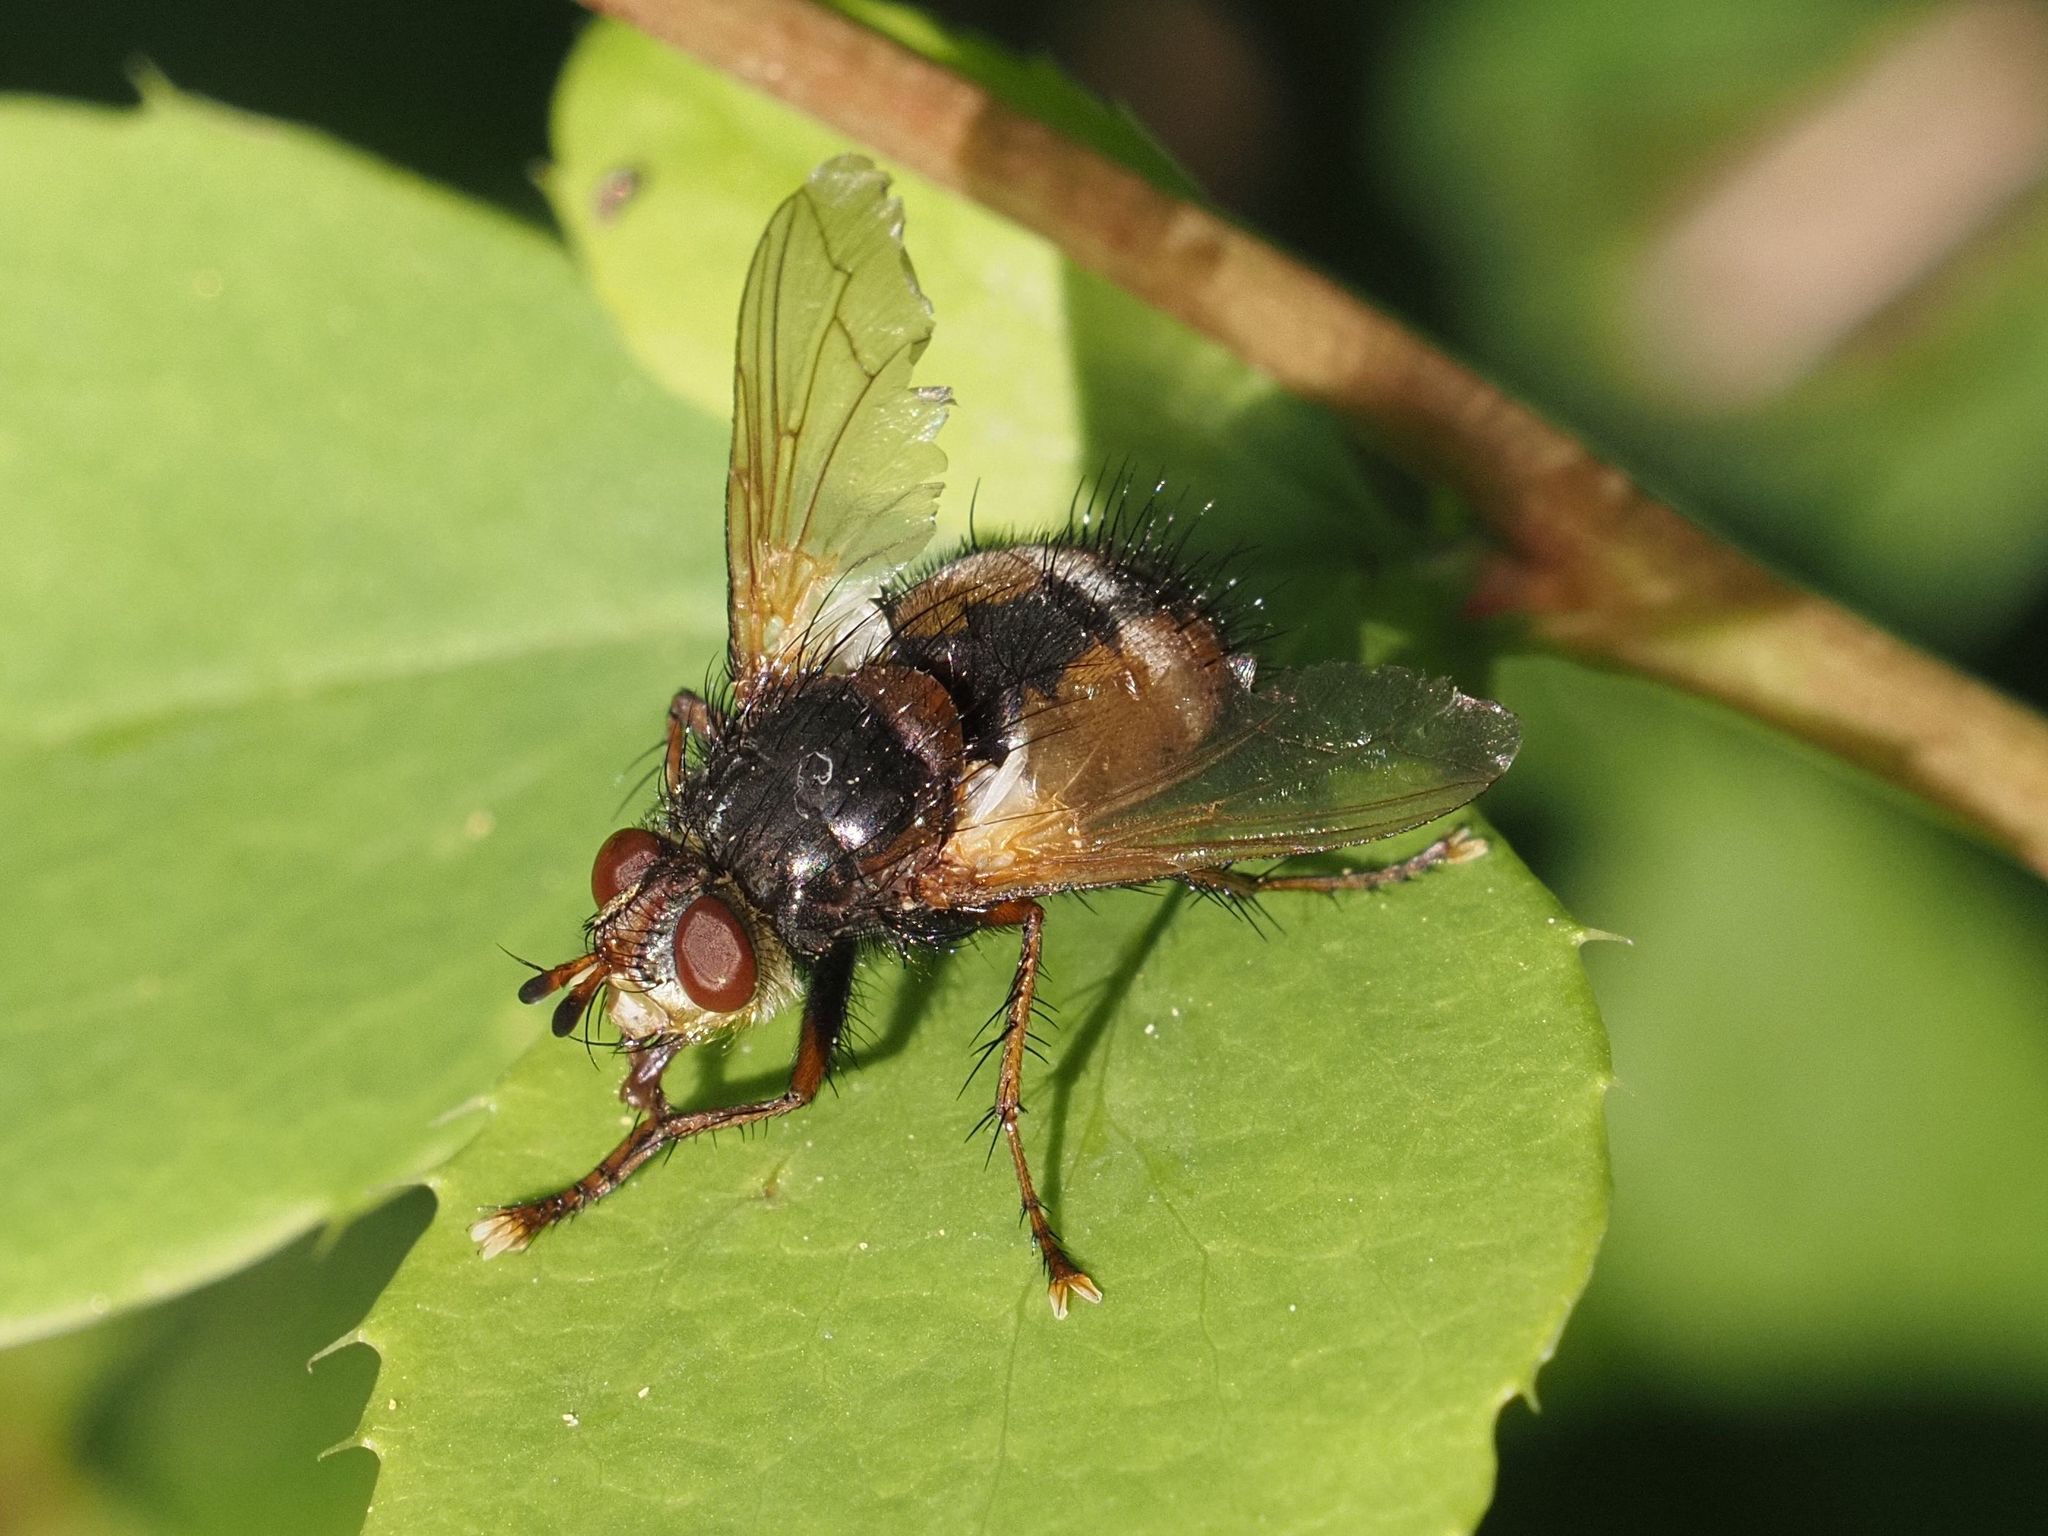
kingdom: Animalia
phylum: Arthropoda
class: Insecta
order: Diptera
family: Tachinidae
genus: Tachina
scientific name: Tachina fera
